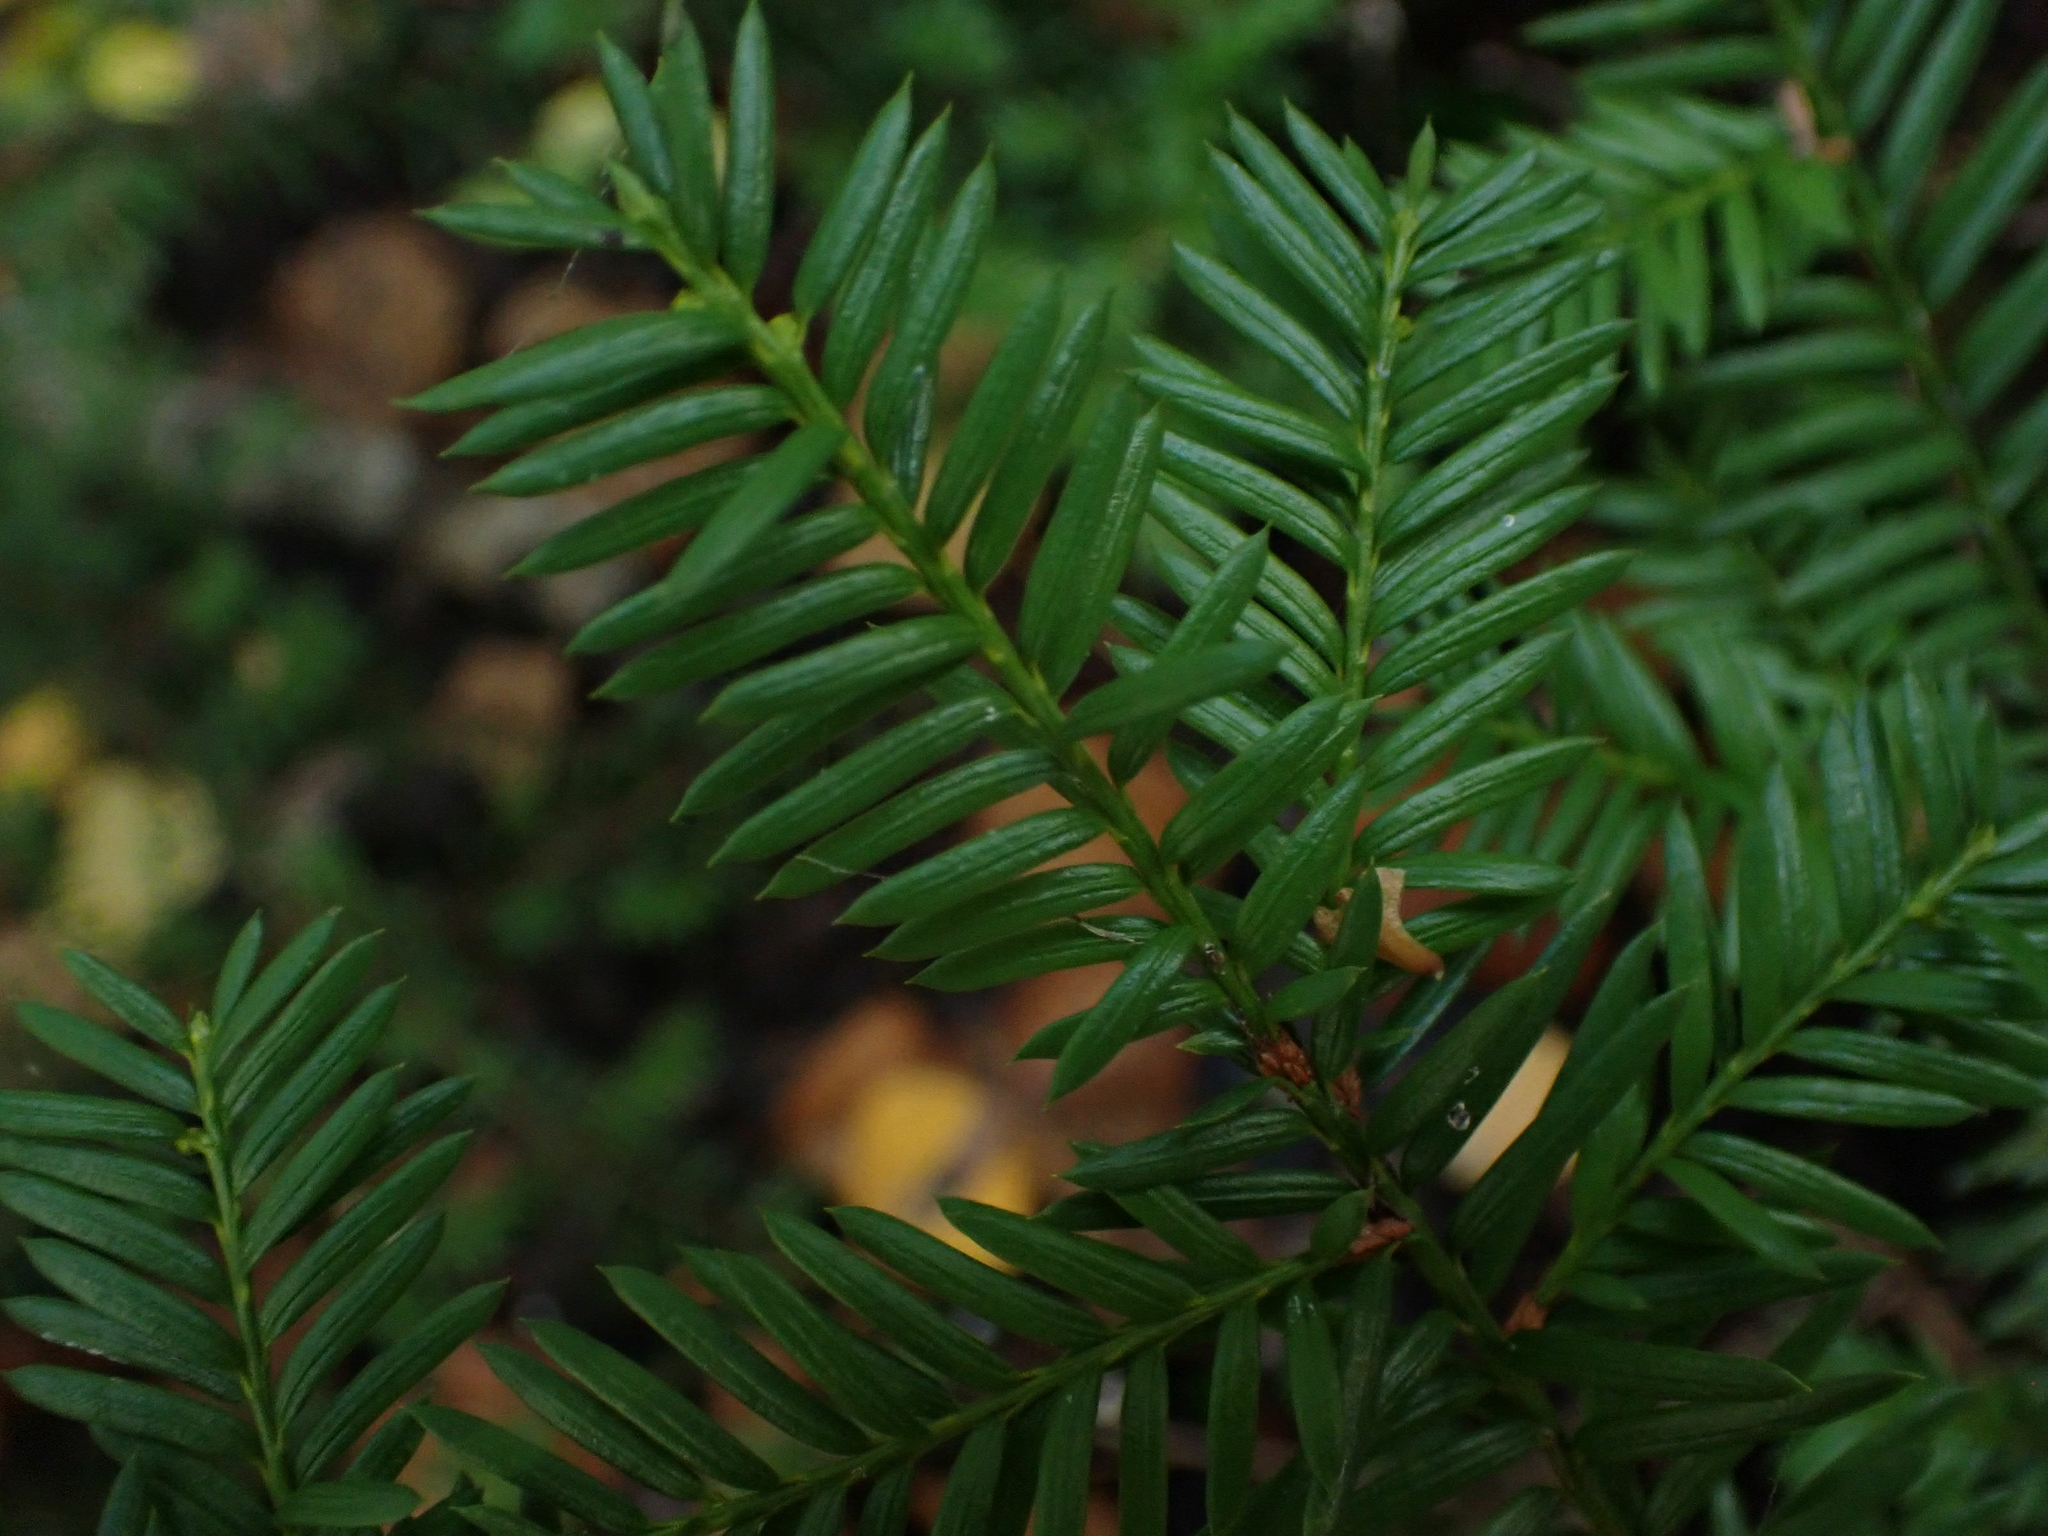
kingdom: Plantae
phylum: Tracheophyta
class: Pinopsida
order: Pinales
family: Taxaceae
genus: Taxus
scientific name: Taxus canadensis
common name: American yew
